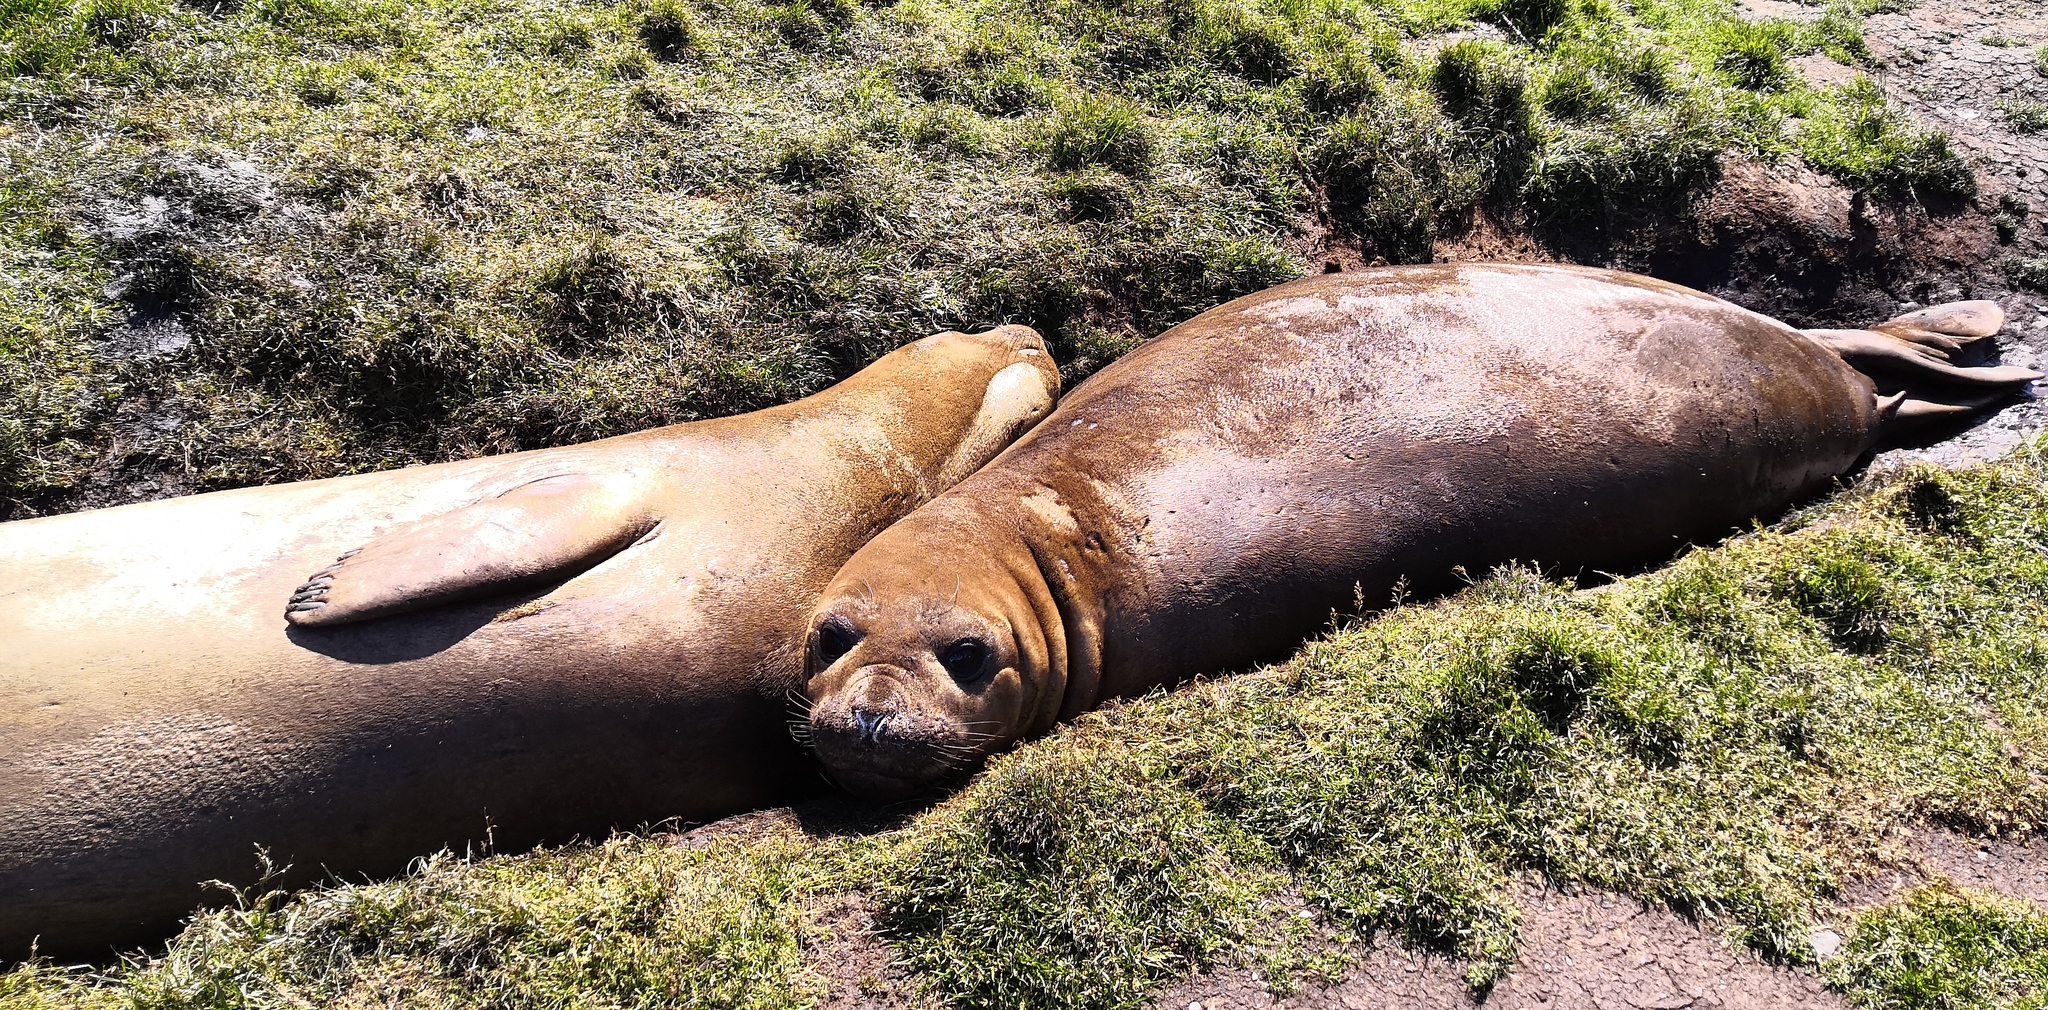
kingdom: Animalia
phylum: Chordata
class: Mammalia
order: Carnivora
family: Phocidae
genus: Mirounga
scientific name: Mirounga leonina
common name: Southern elephant seal
